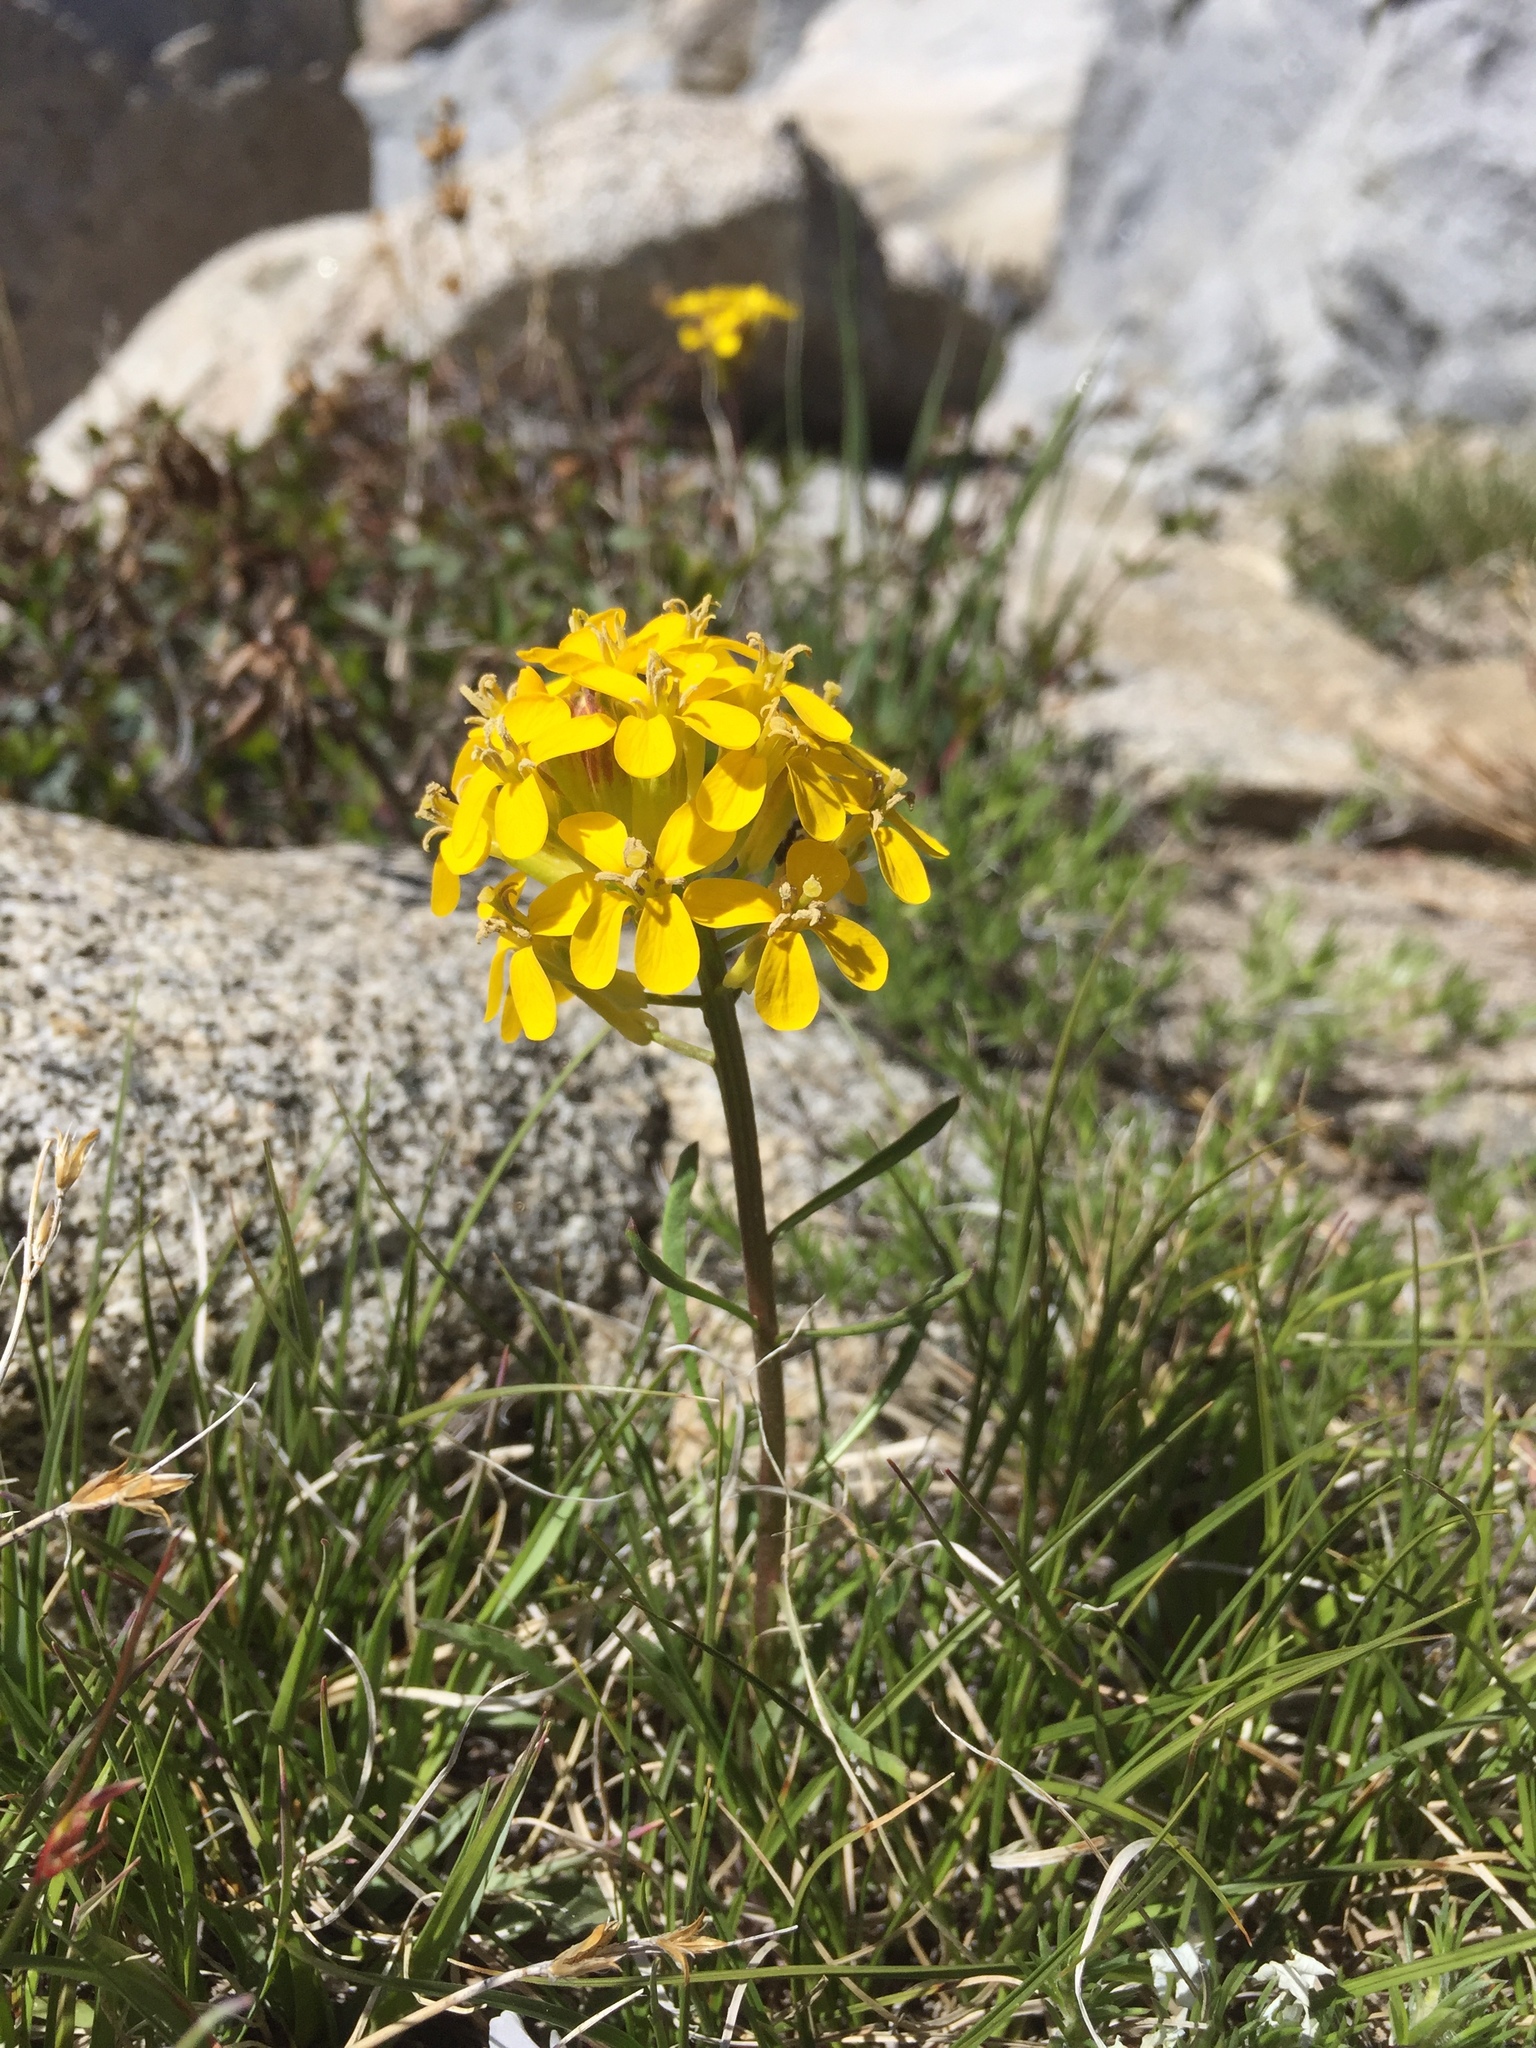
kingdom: Plantae
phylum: Tracheophyta
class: Magnoliopsida
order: Brassicales
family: Brassicaceae
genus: Erysimum
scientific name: Erysimum capitatum
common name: Western wallflower
